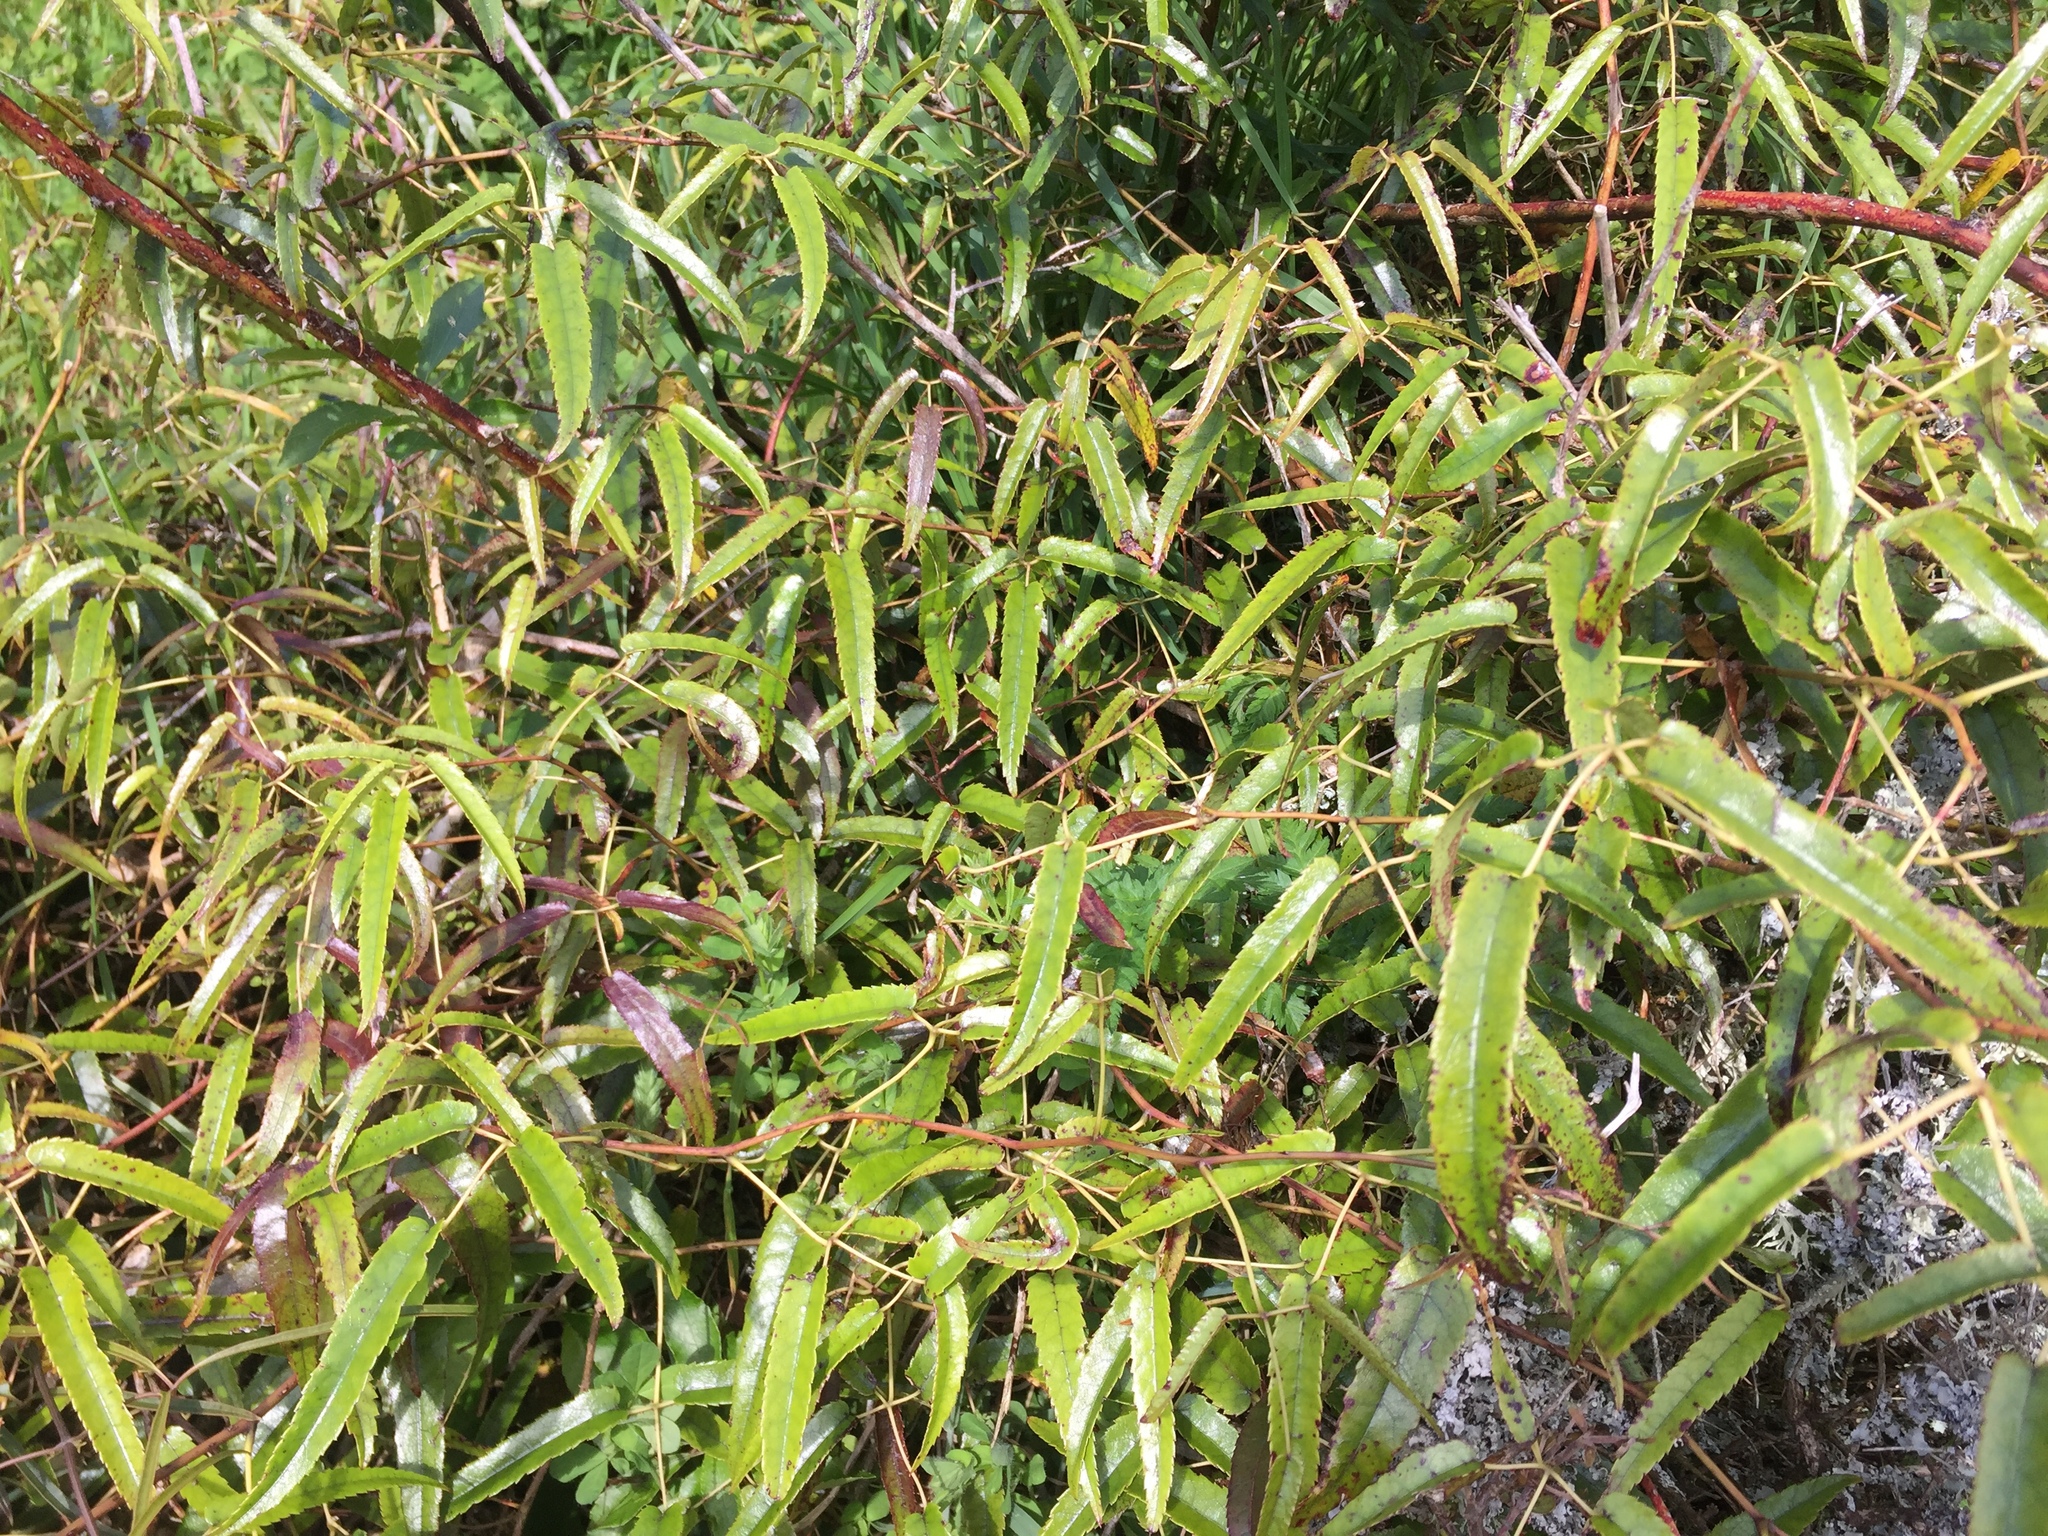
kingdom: Plantae
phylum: Tracheophyta
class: Magnoliopsida
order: Rosales
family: Rosaceae
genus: Rubus
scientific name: Rubus cissoides
